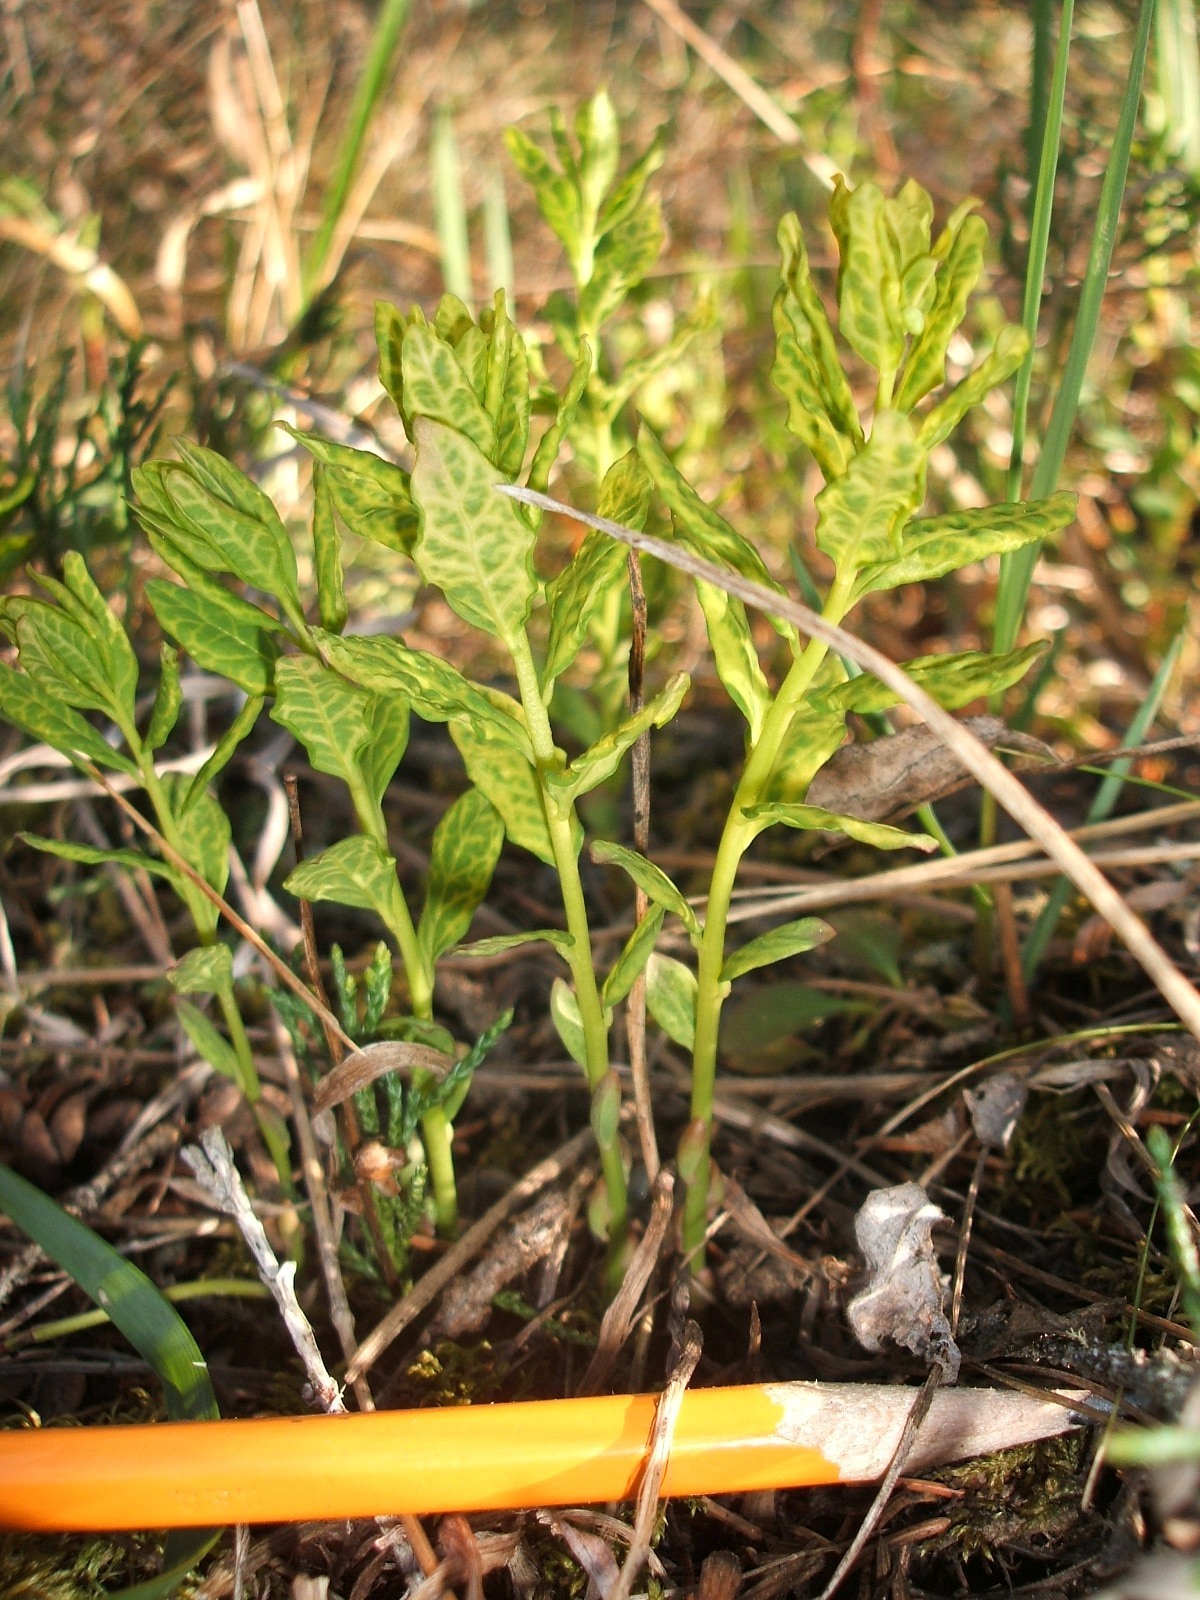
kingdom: Plantae
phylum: Tracheophyta
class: Magnoliopsida
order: Santalales
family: Comandraceae
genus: Geocaulon
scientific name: Geocaulon lividum
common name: Earthberry
